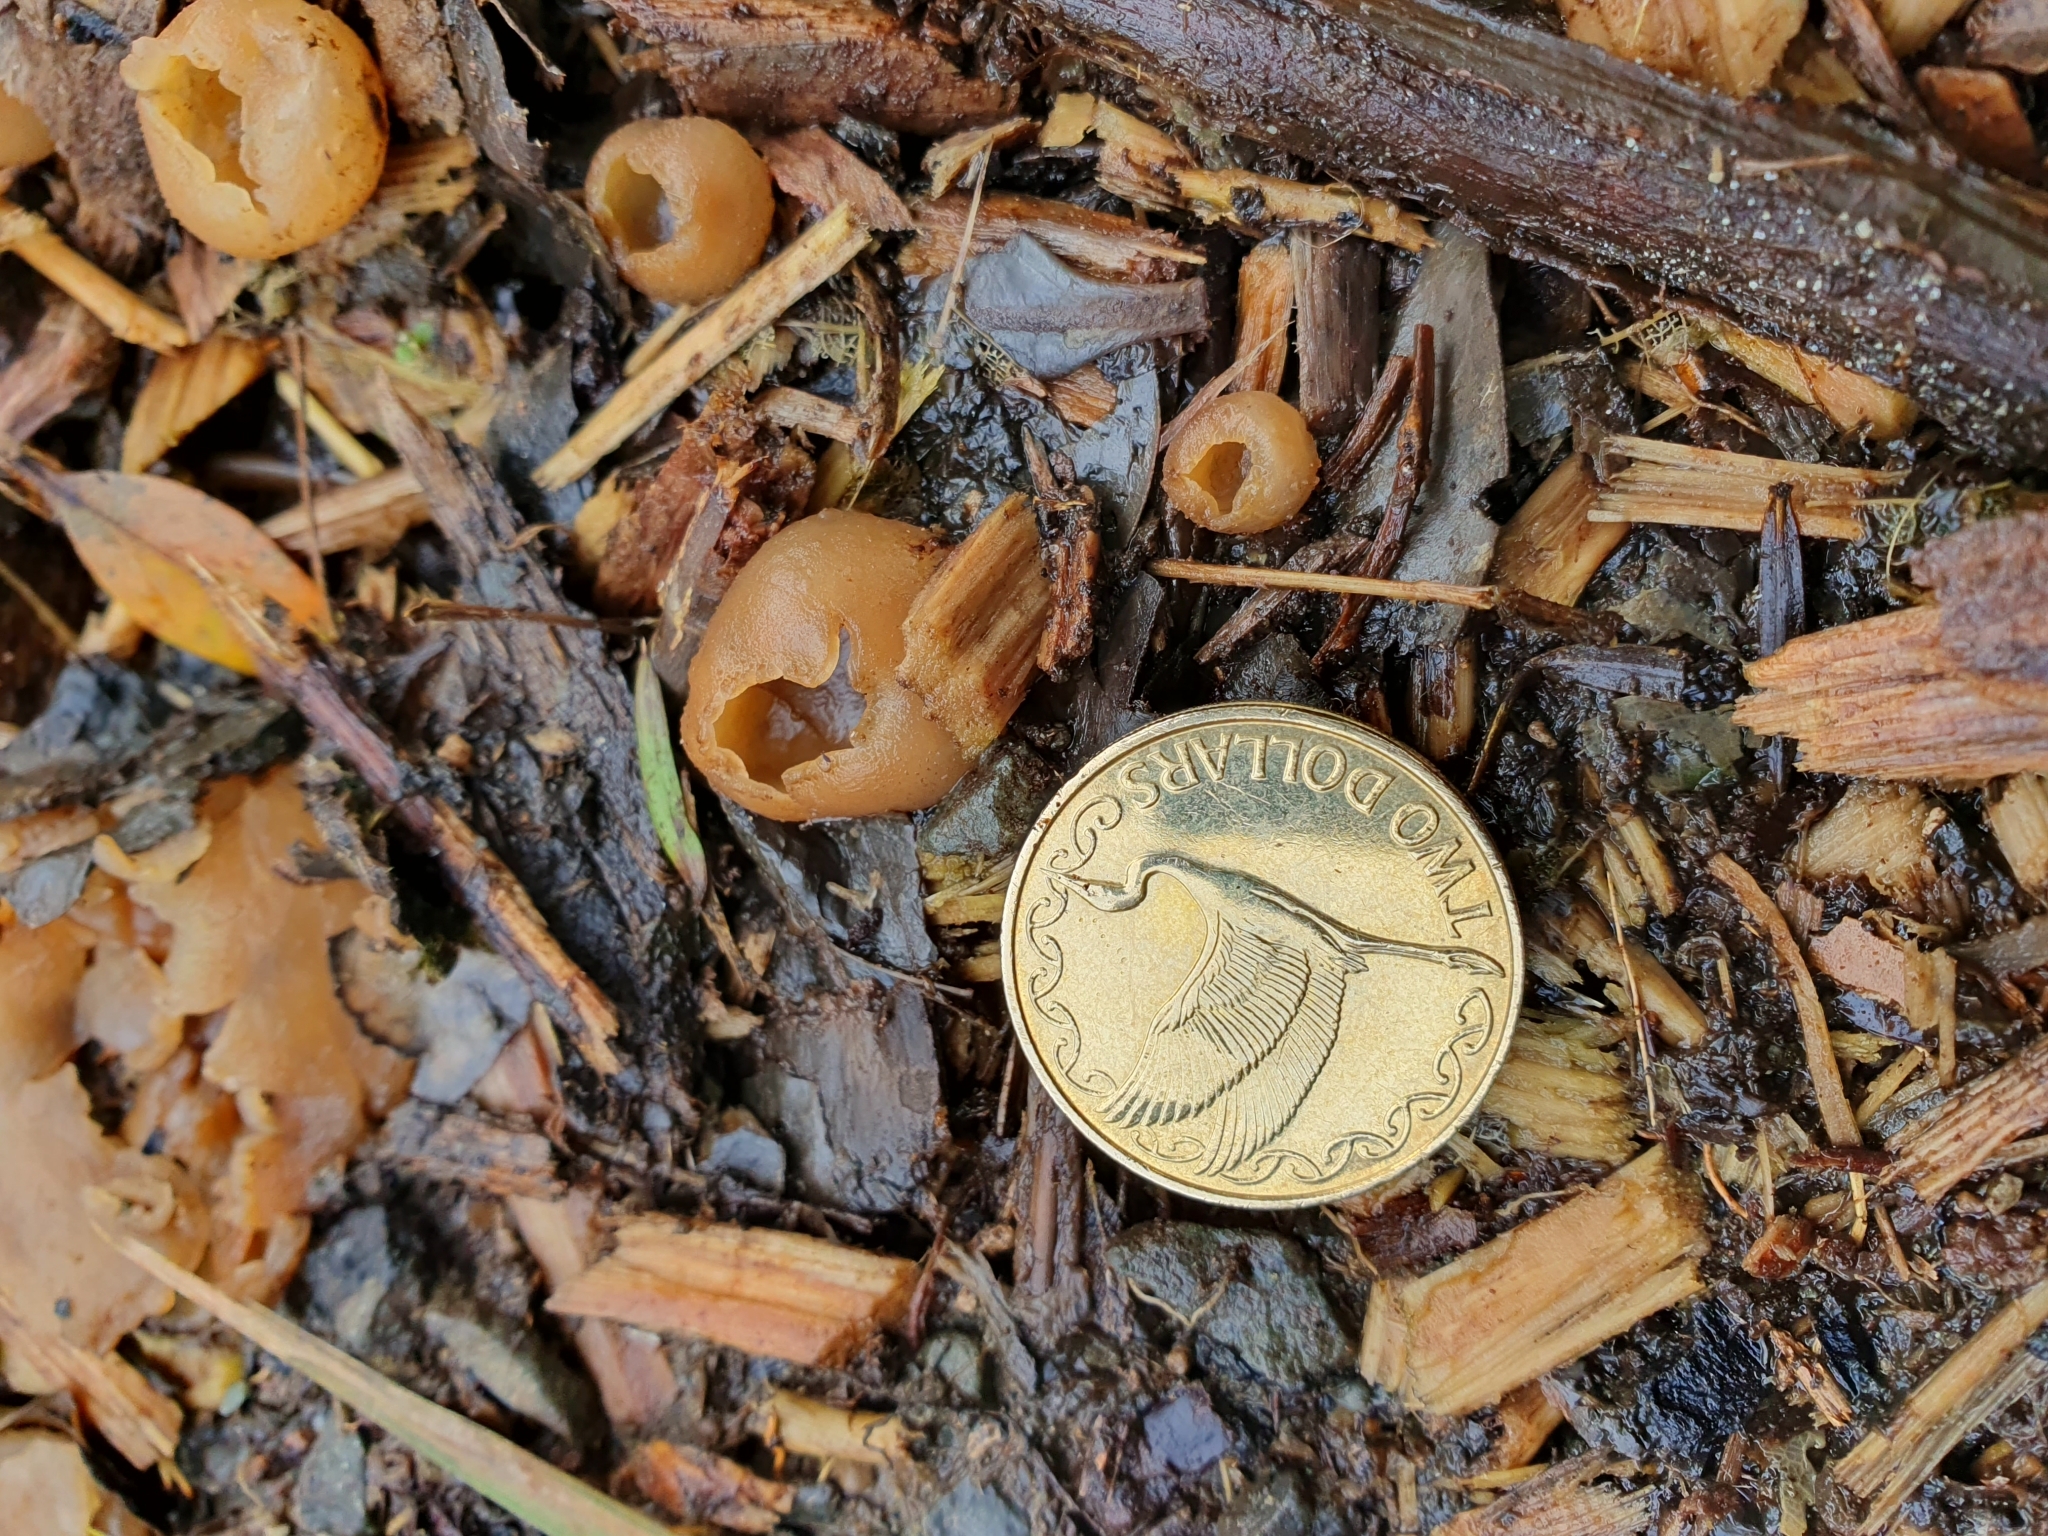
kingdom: Fungi
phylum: Ascomycota
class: Pezizomycetes
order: Pezizales
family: Pezizaceae
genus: Peziza
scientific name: Peziza varia
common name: Layered cup
